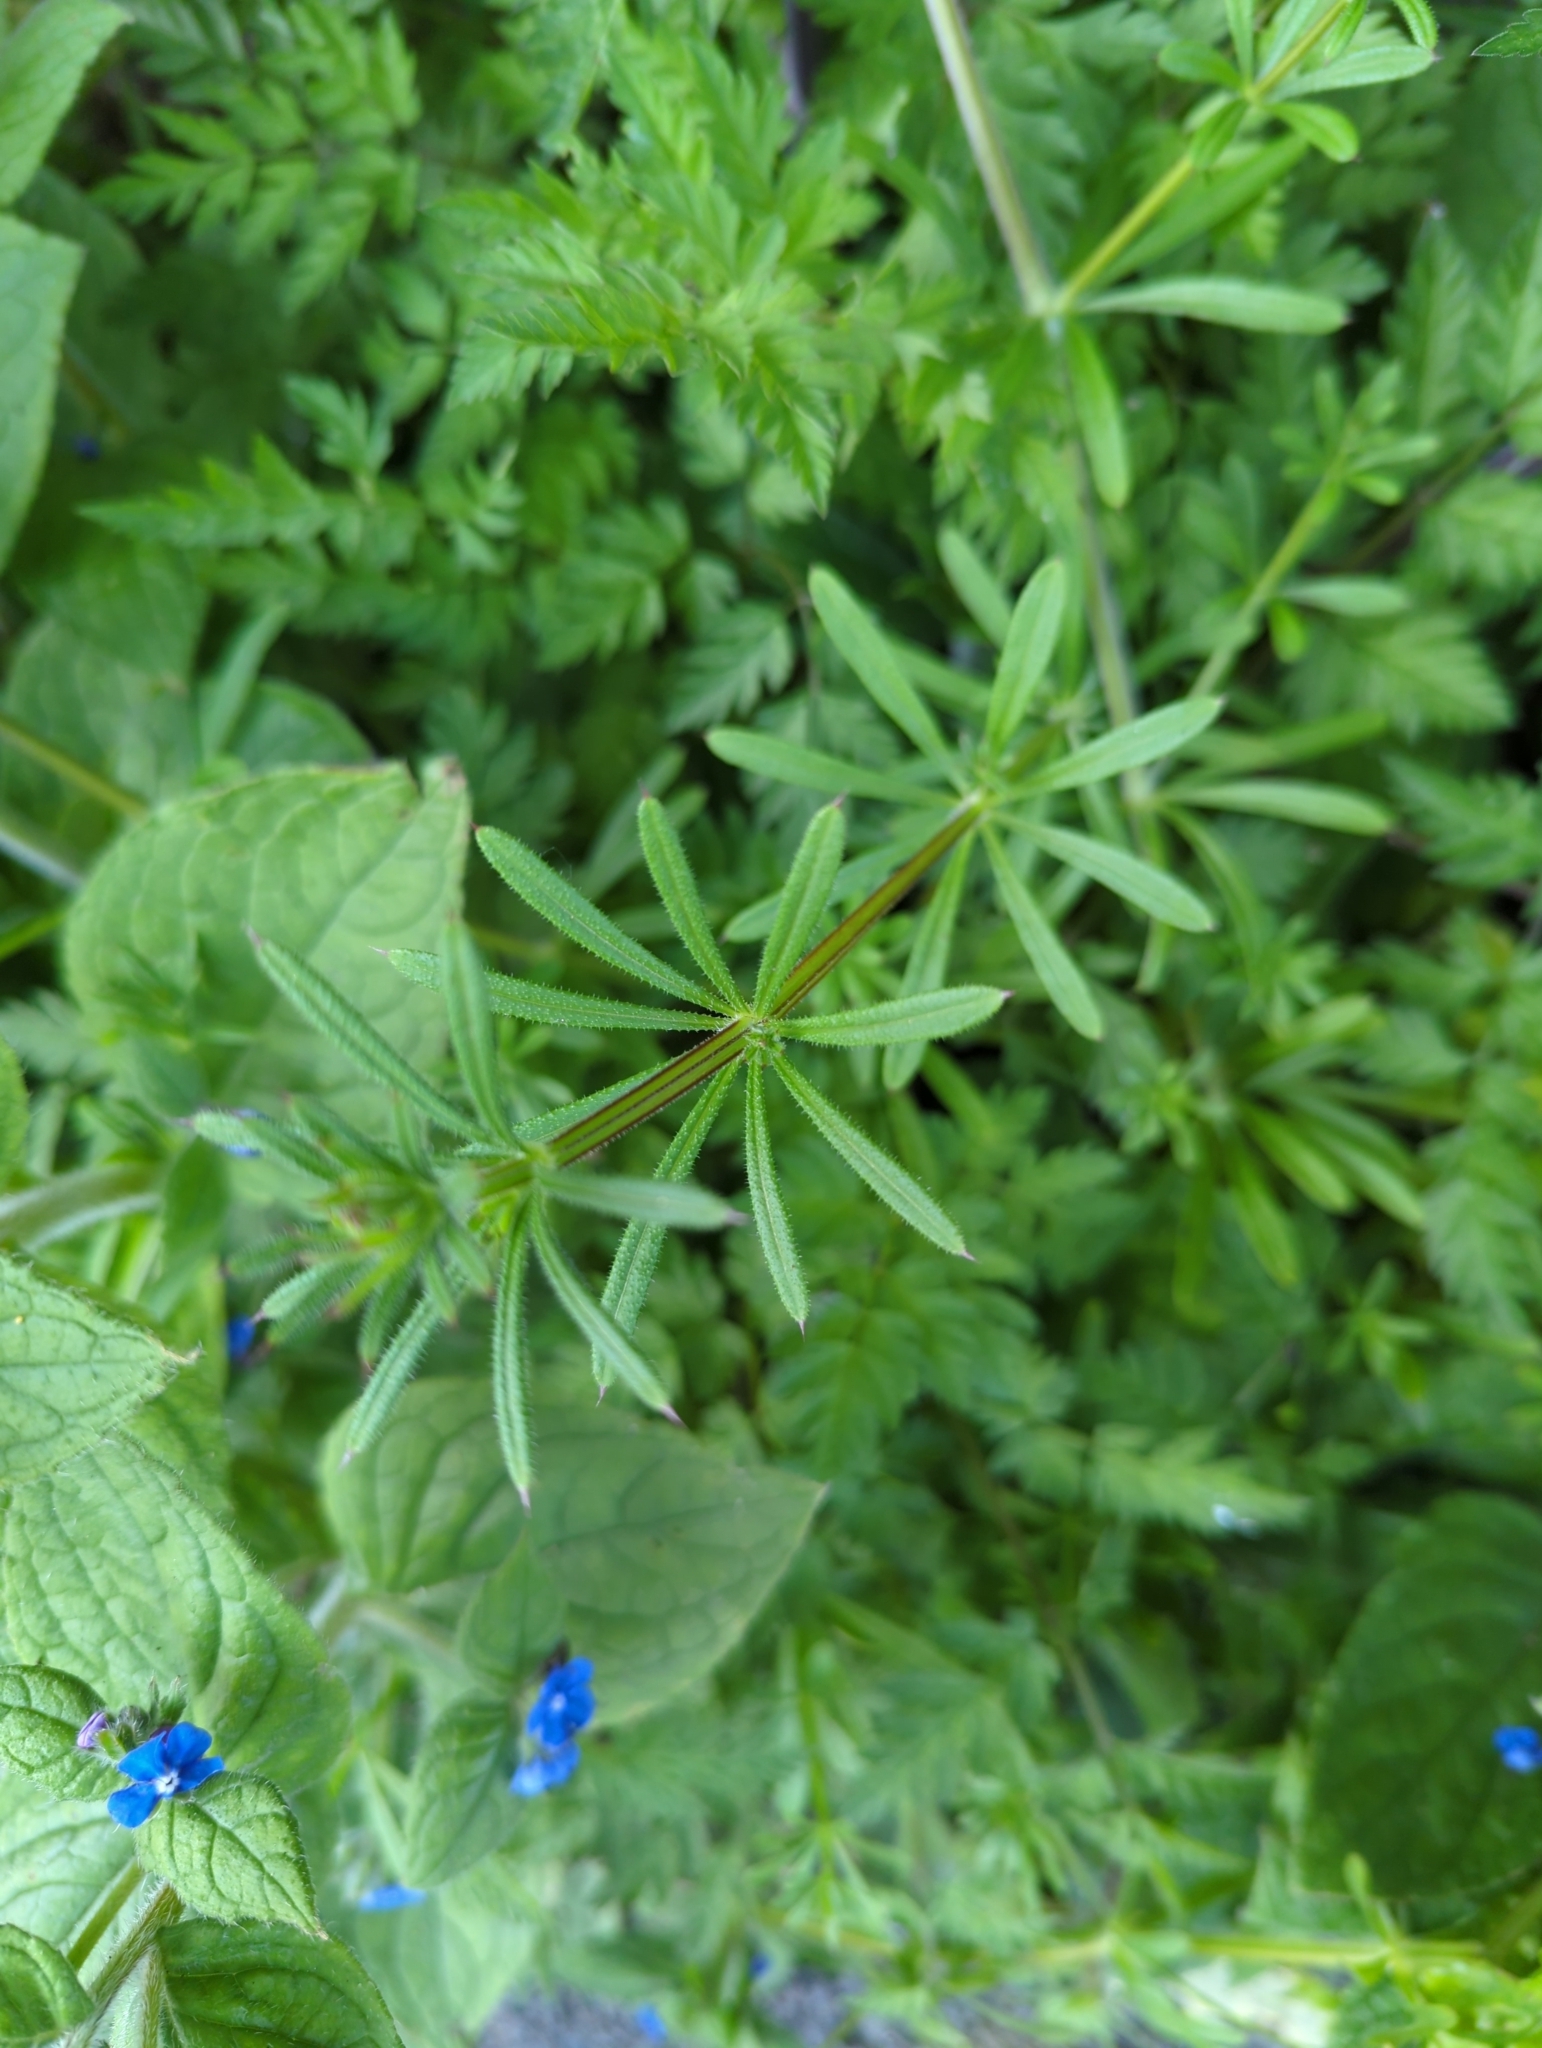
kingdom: Plantae
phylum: Tracheophyta
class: Magnoliopsida
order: Gentianales
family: Rubiaceae
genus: Galium
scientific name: Galium aparine
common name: Cleavers
